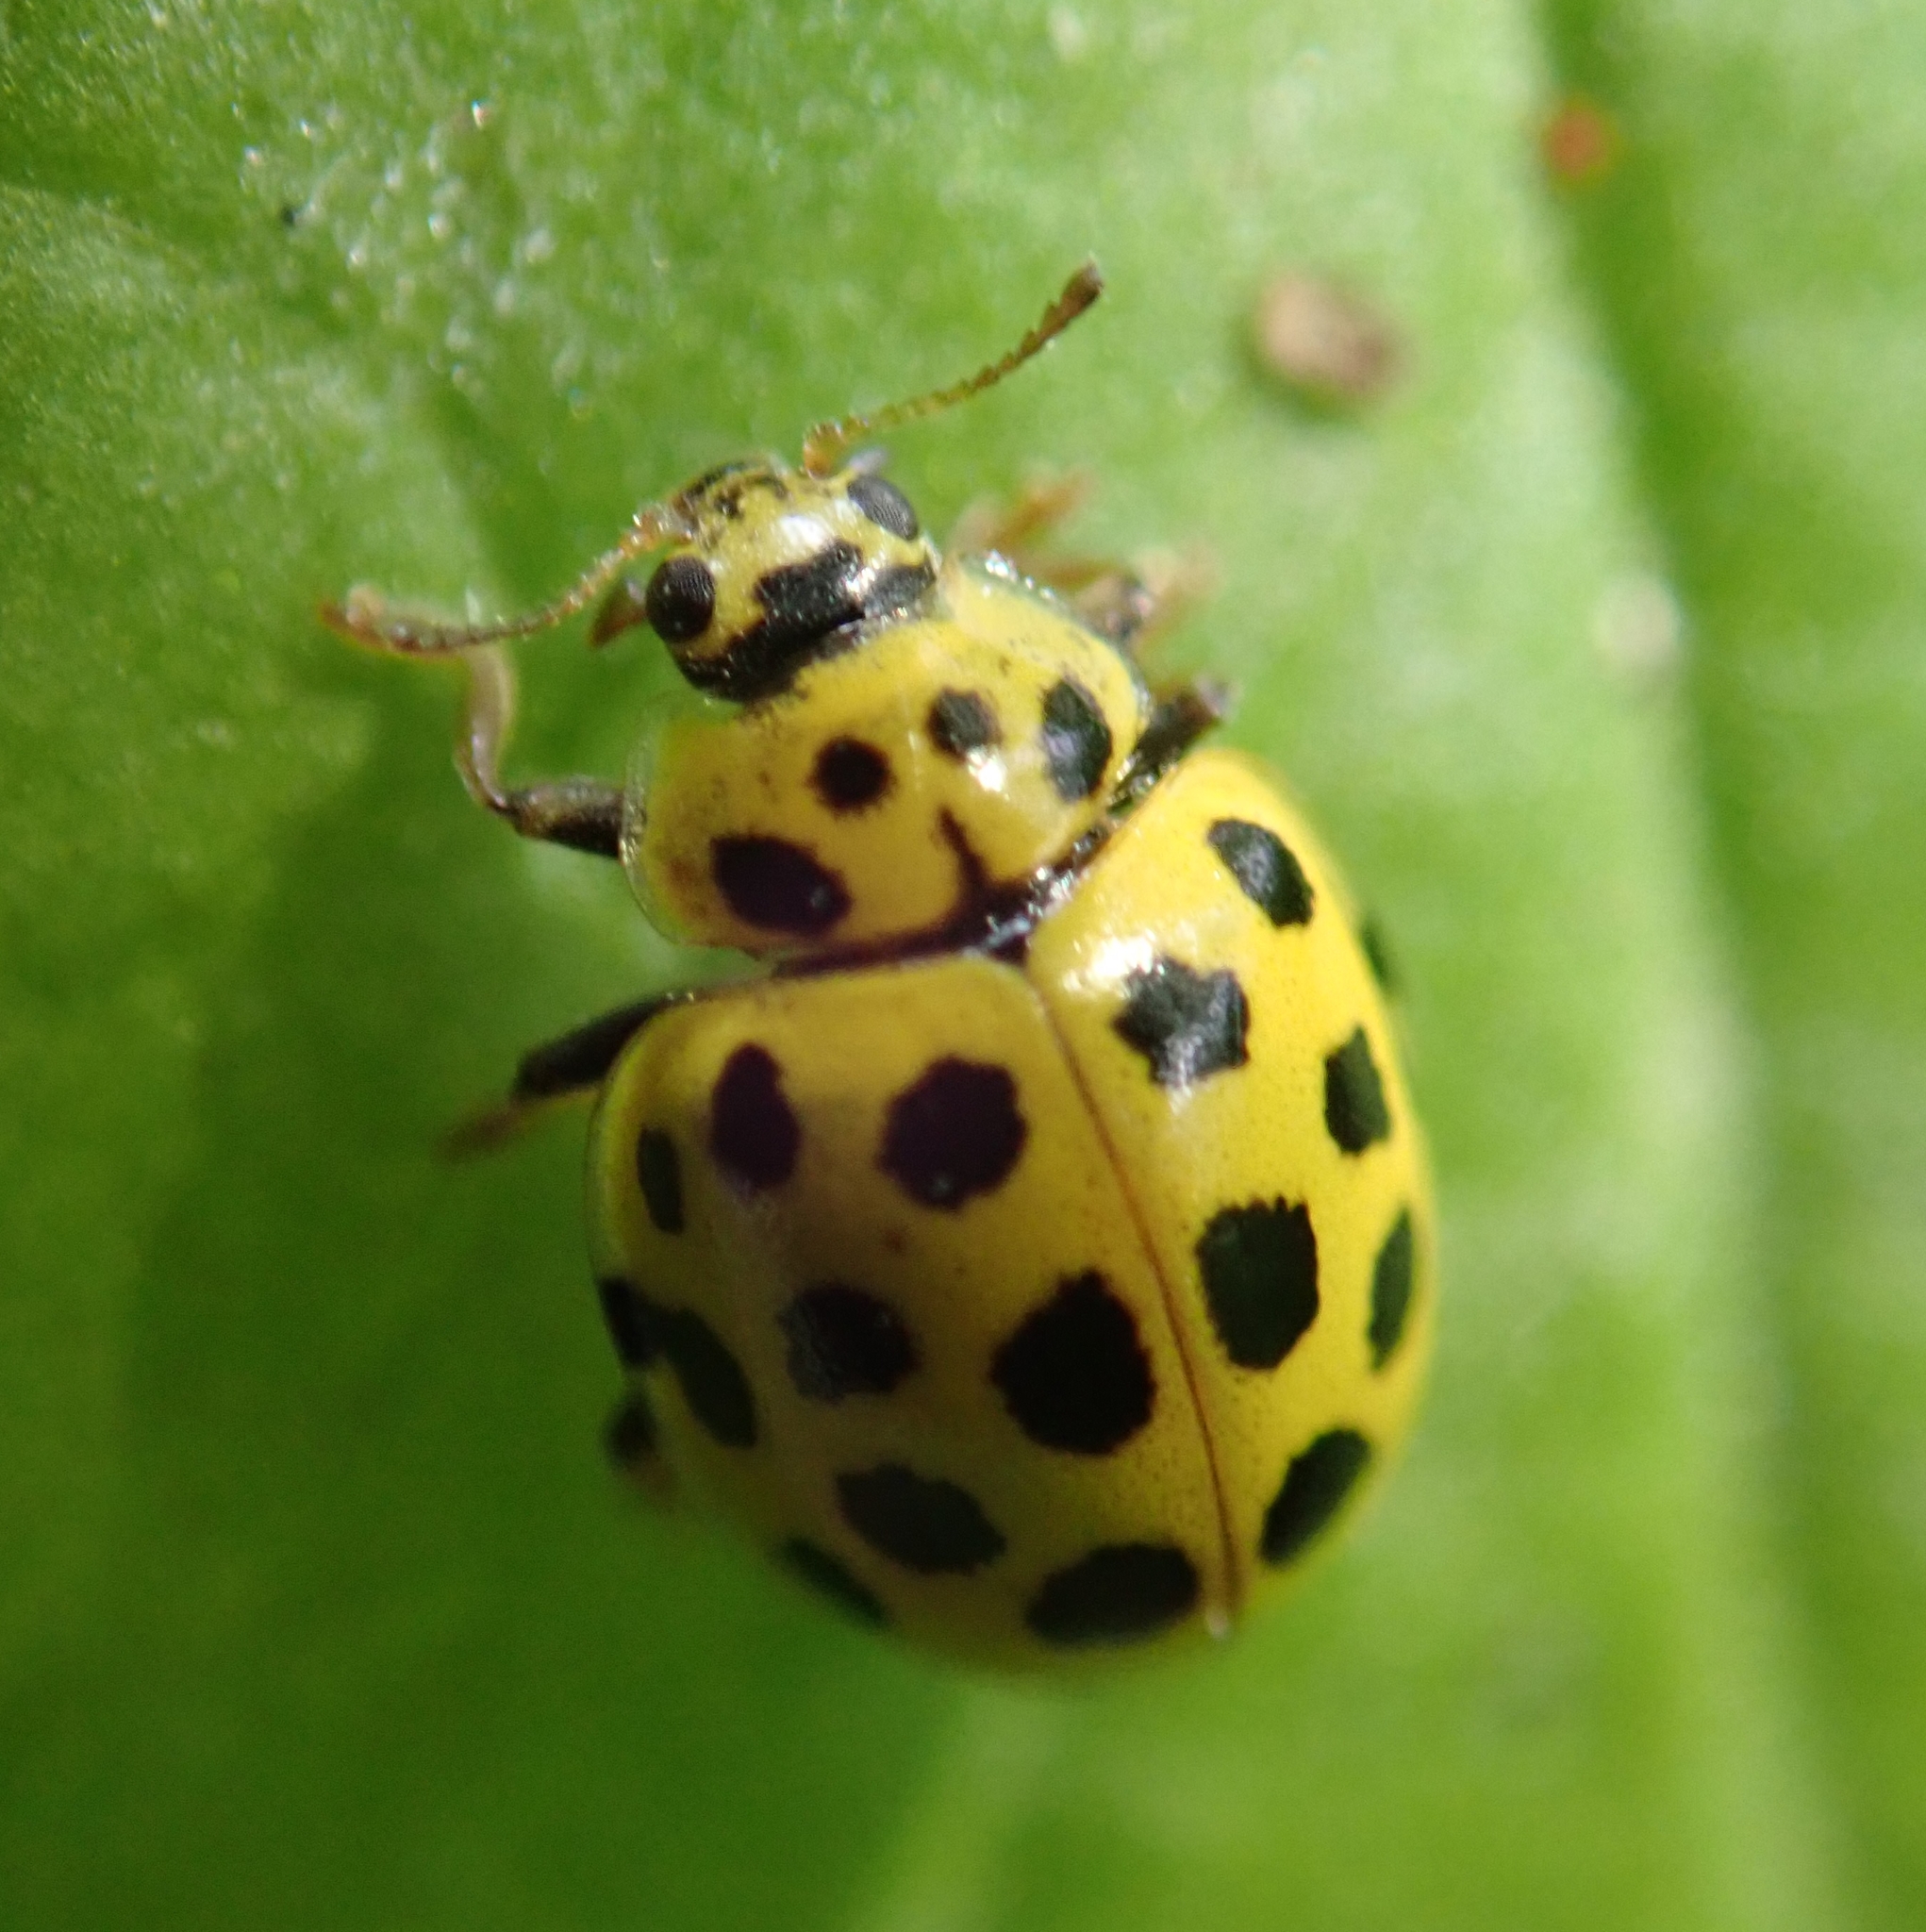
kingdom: Animalia
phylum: Arthropoda
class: Insecta
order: Coleoptera
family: Coccinellidae
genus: Psyllobora
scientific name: Psyllobora vigintiduopunctata
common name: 22-spot ladybird
